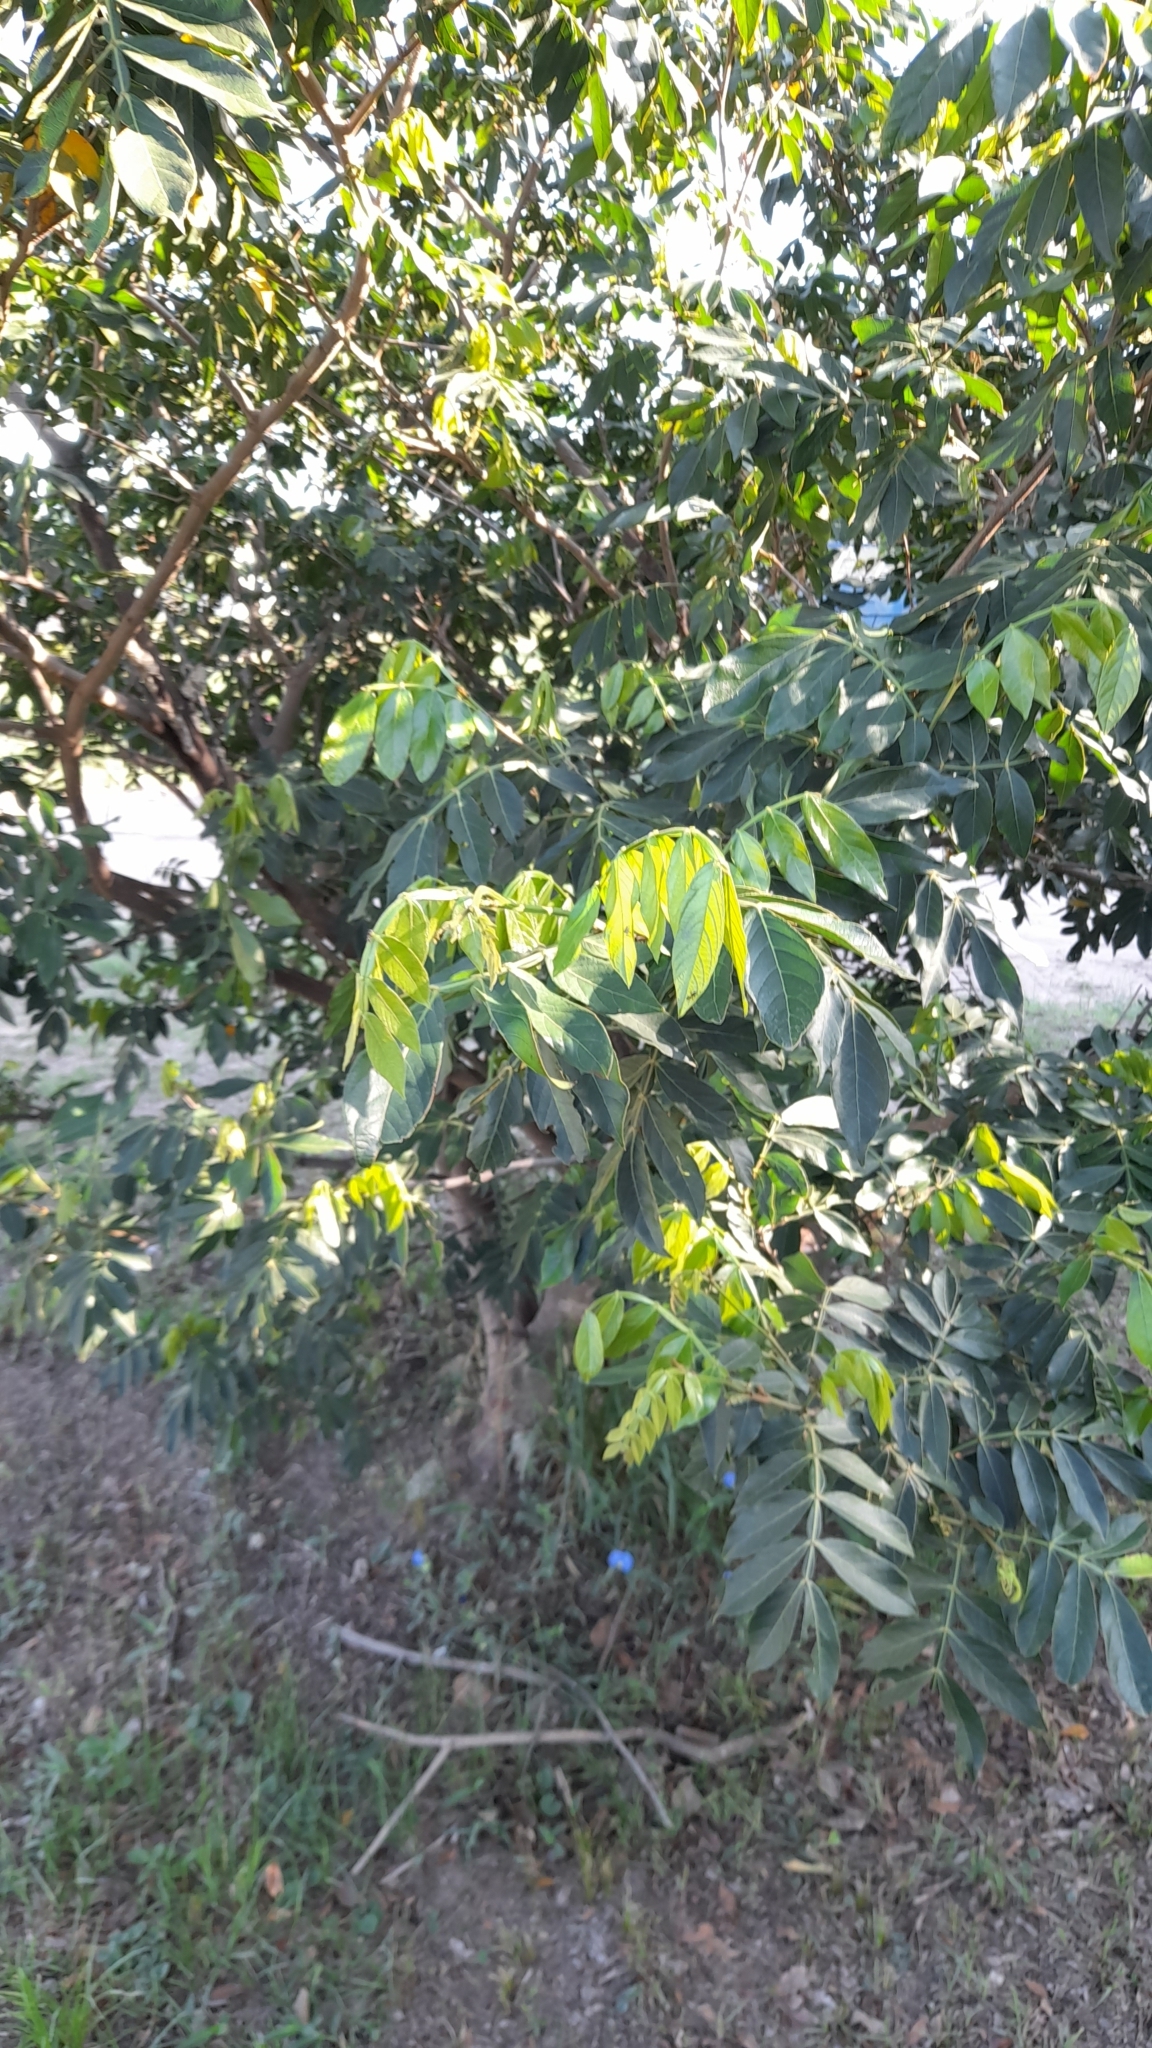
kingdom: Plantae
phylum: Tracheophyta
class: Magnoliopsida
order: Fabales
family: Fabaceae
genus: Inga
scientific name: Inga uraguensis
